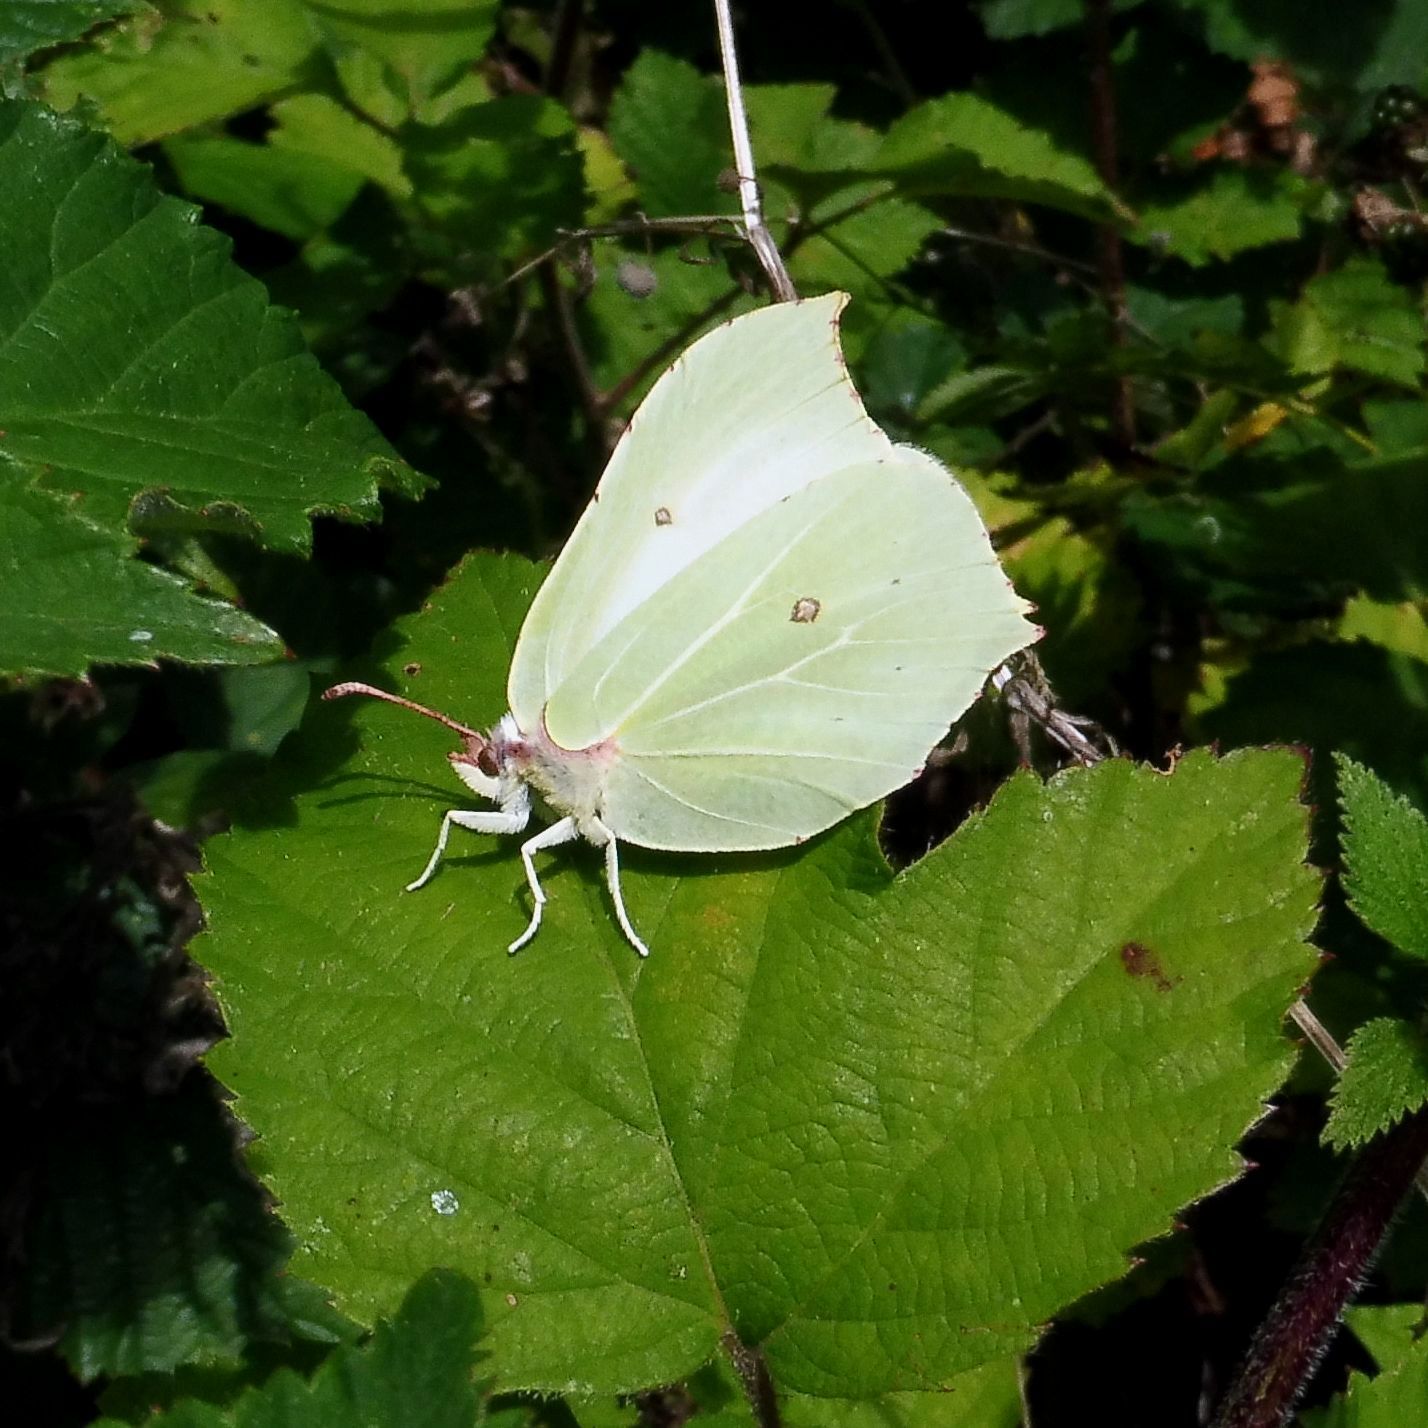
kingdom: Animalia
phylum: Arthropoda
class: Insecta
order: Lepidoptera
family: Pieridae
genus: Gonepteryx
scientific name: Gonepteryx rhamni
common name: Brimstone
